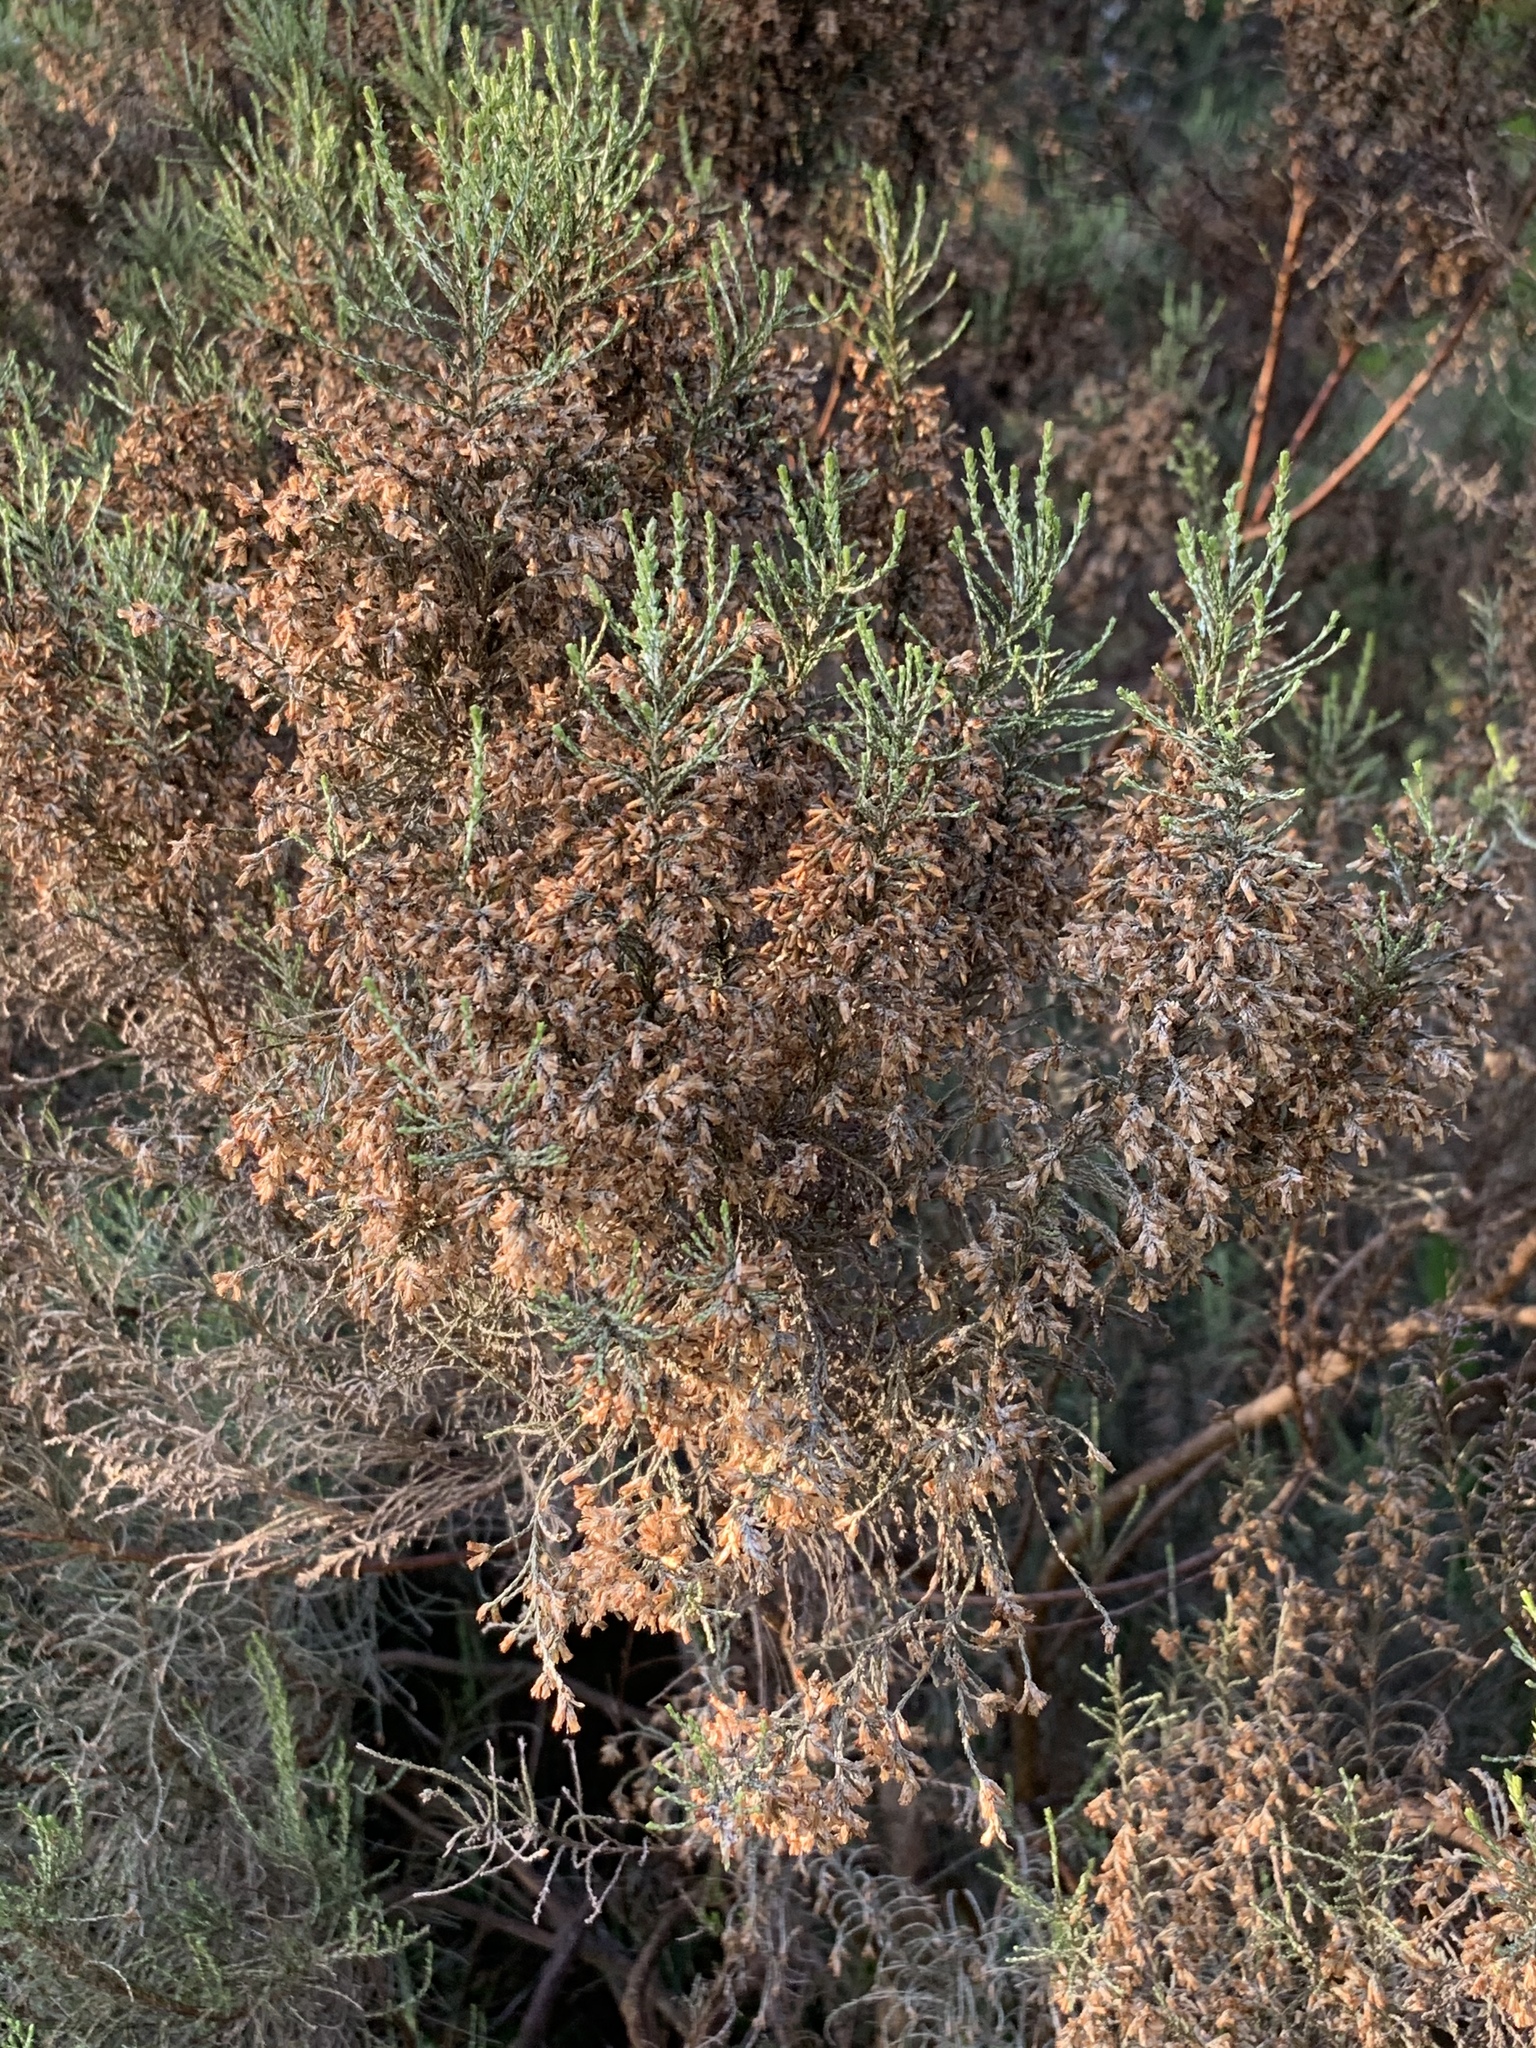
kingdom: Plantae
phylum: Tracheophyta
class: Magnoliopsida
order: Asterales
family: Asteraceae
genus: Dicerothamnus
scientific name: Dicerothamnus rhinocerotis
